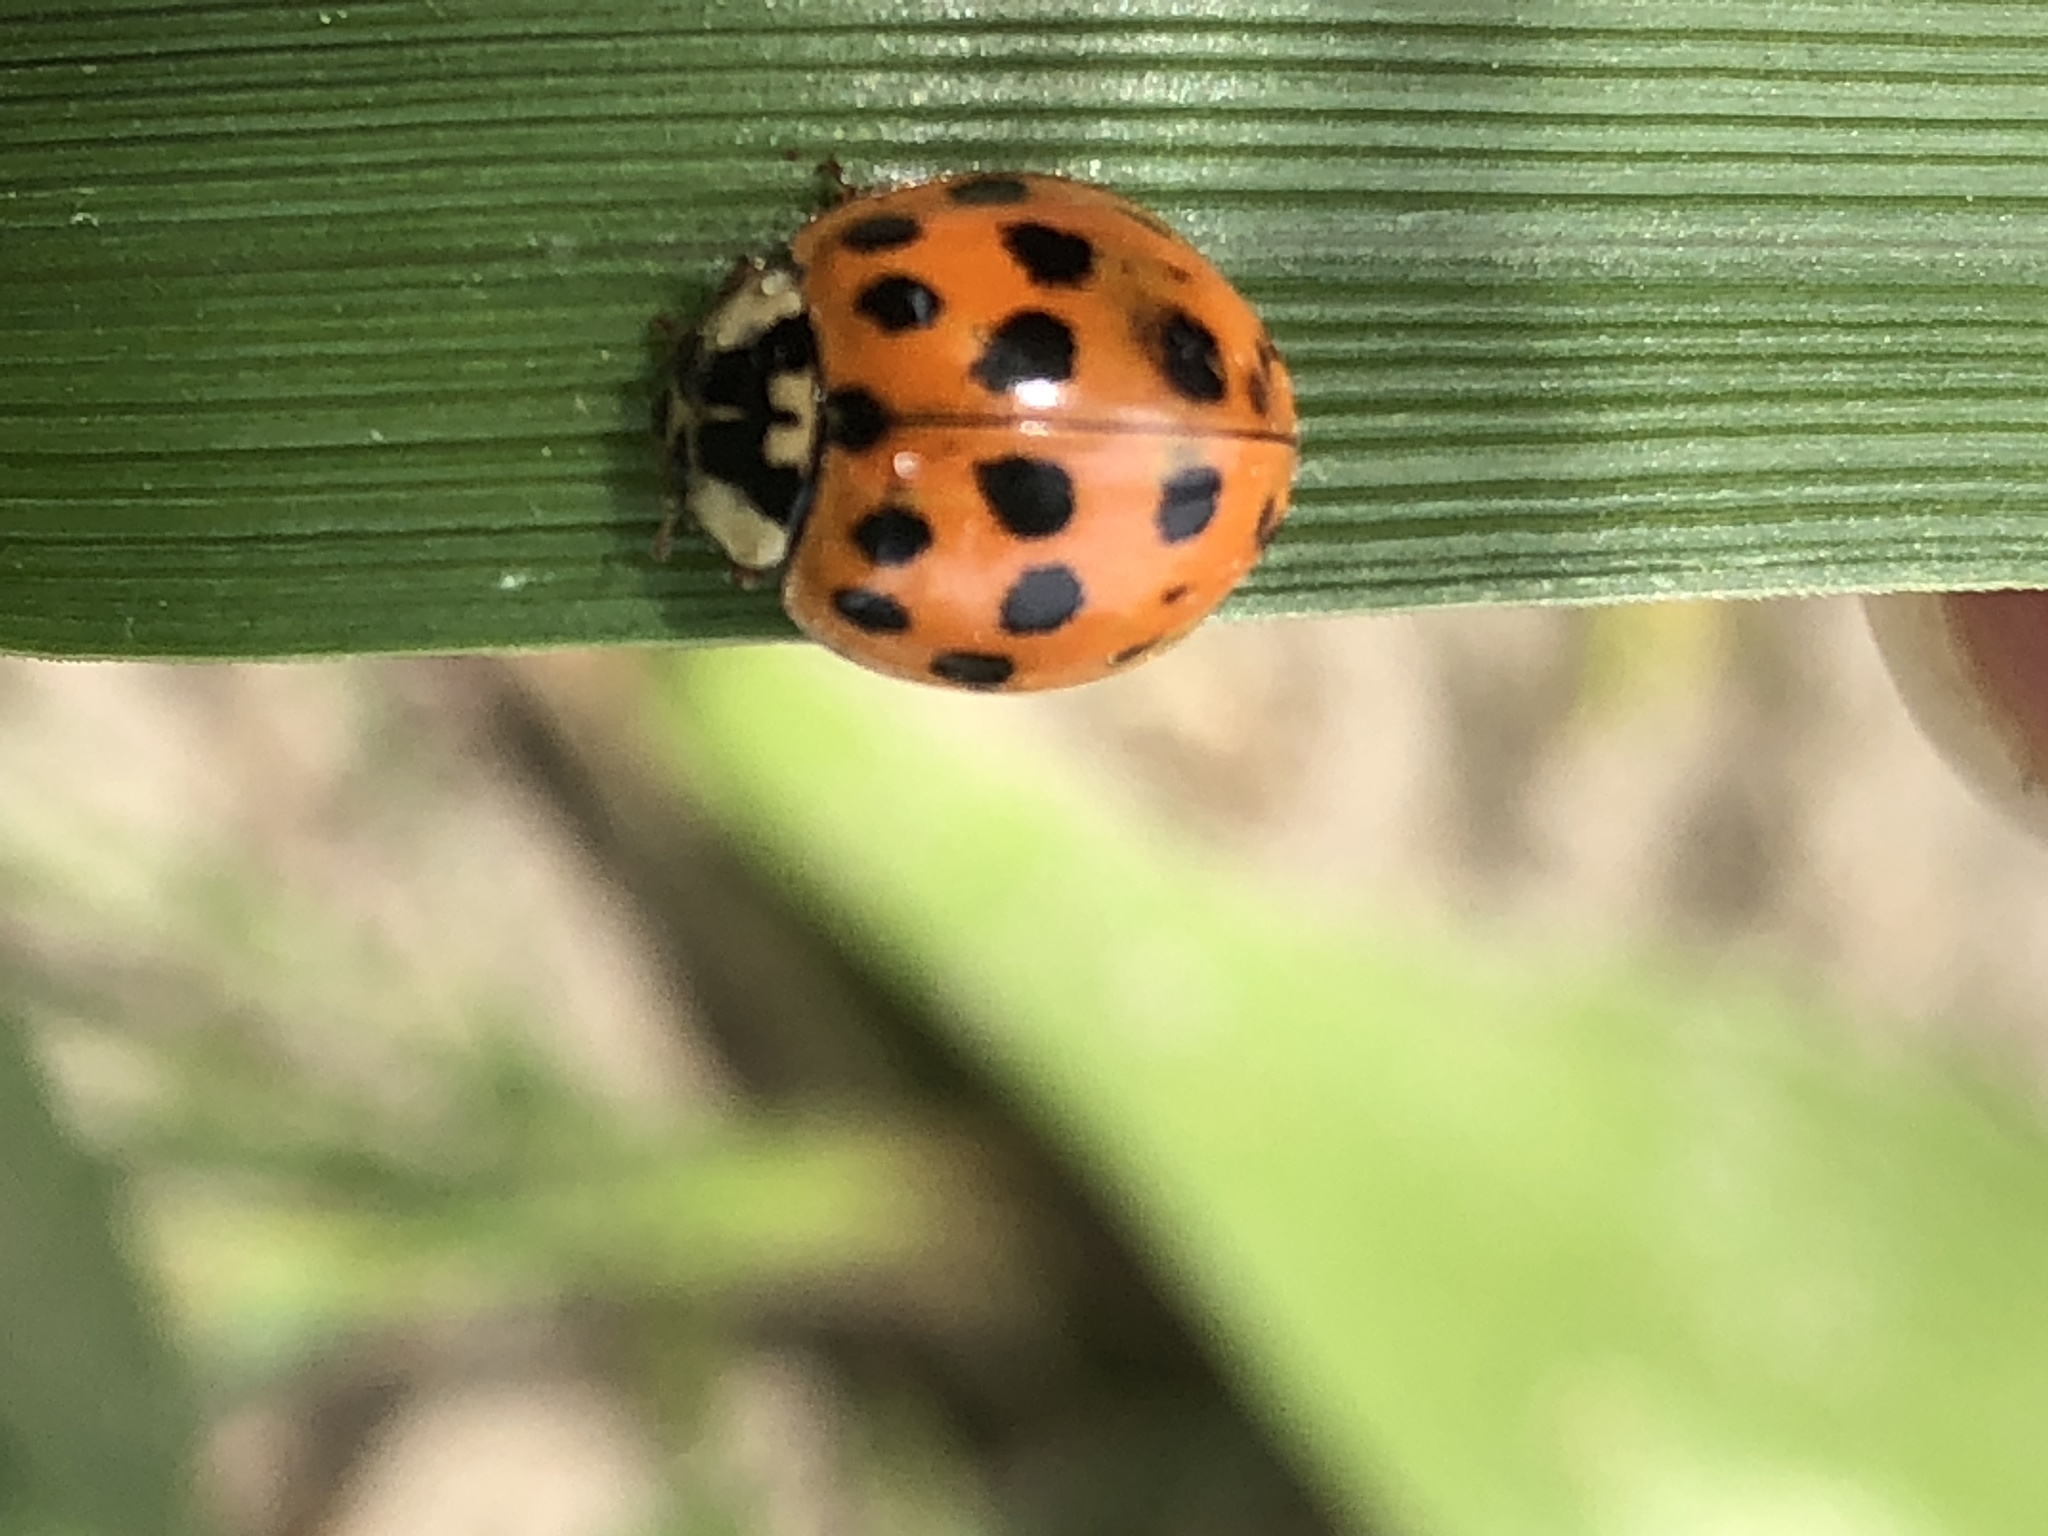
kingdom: Animalia
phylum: Arthropoda
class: Insecta
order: Coleoptera
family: Coccinellidae
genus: Harmonia
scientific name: Harmonia axyridis
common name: Harlequin ladybird
